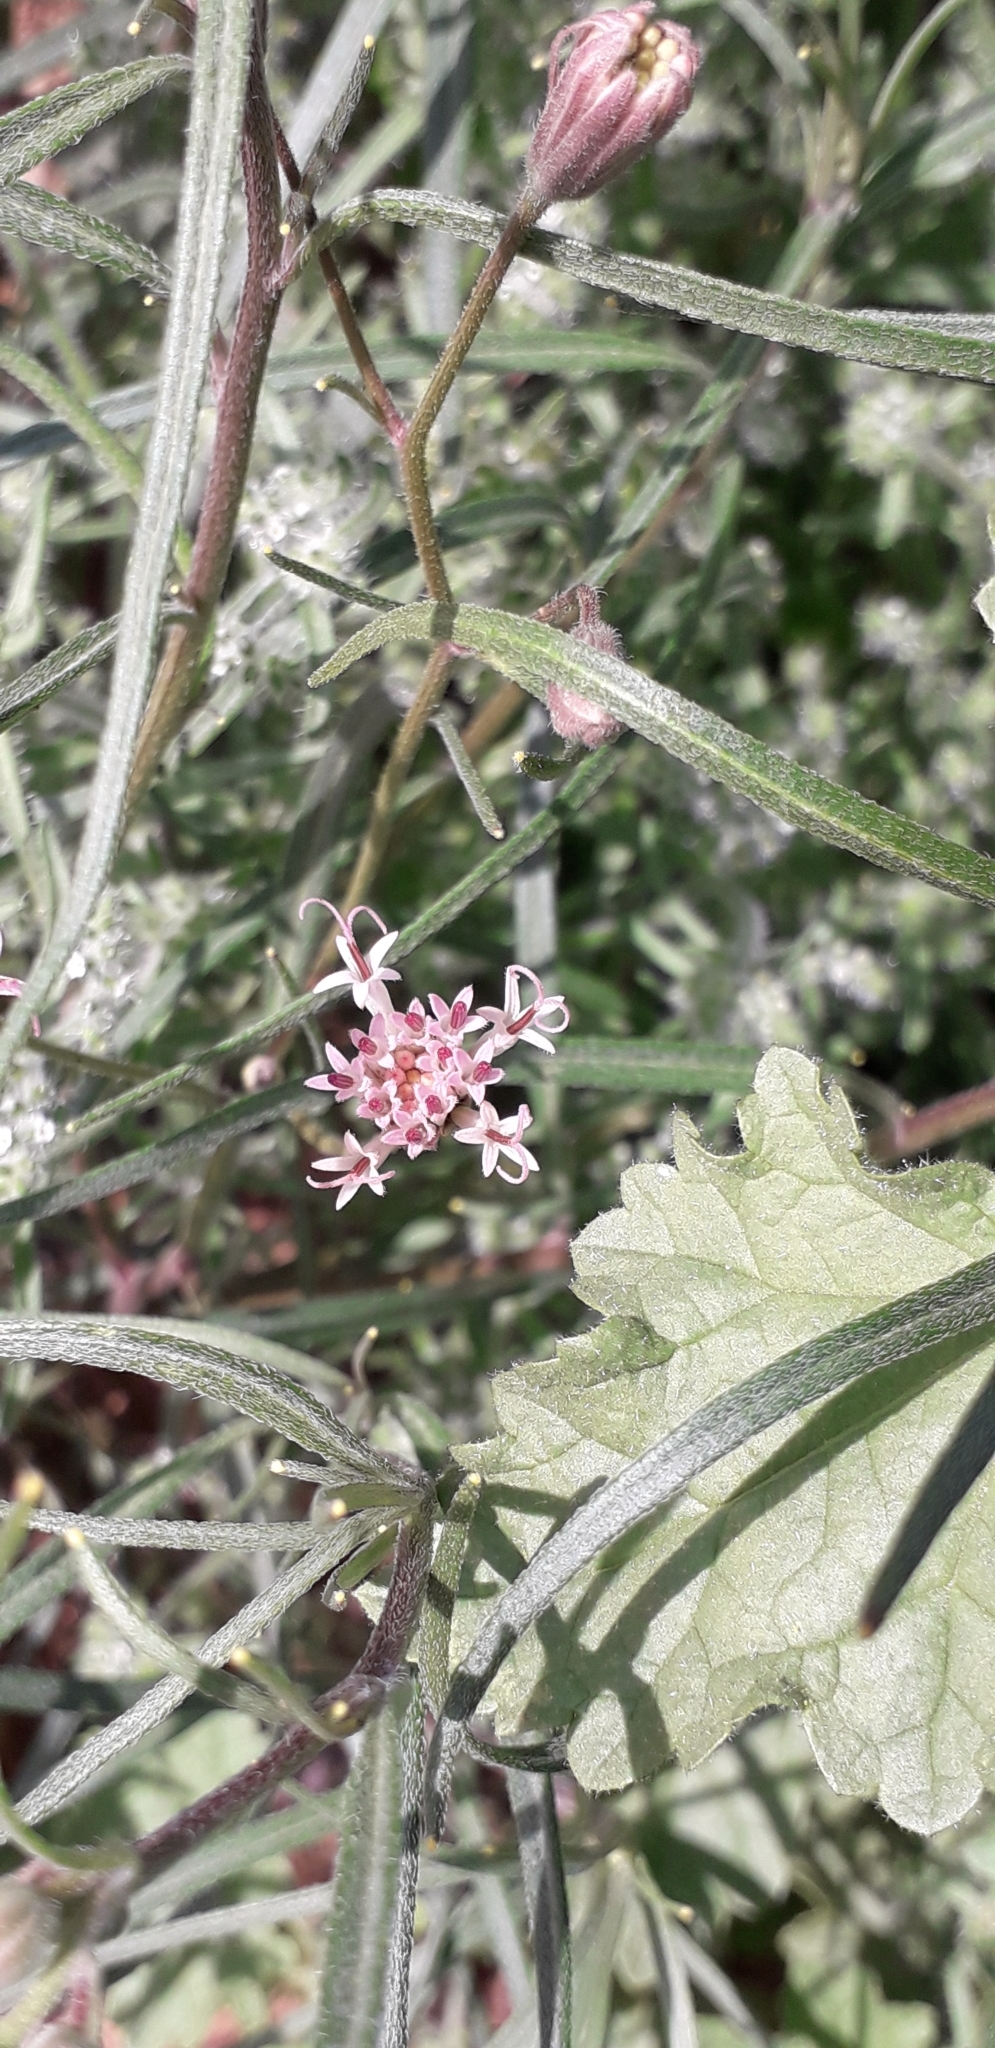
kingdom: Plantae
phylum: Tracheophyta
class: Magnoliopsida
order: Asterales
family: Asteraceae
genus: Palafoxia
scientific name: Palafoxia arida
